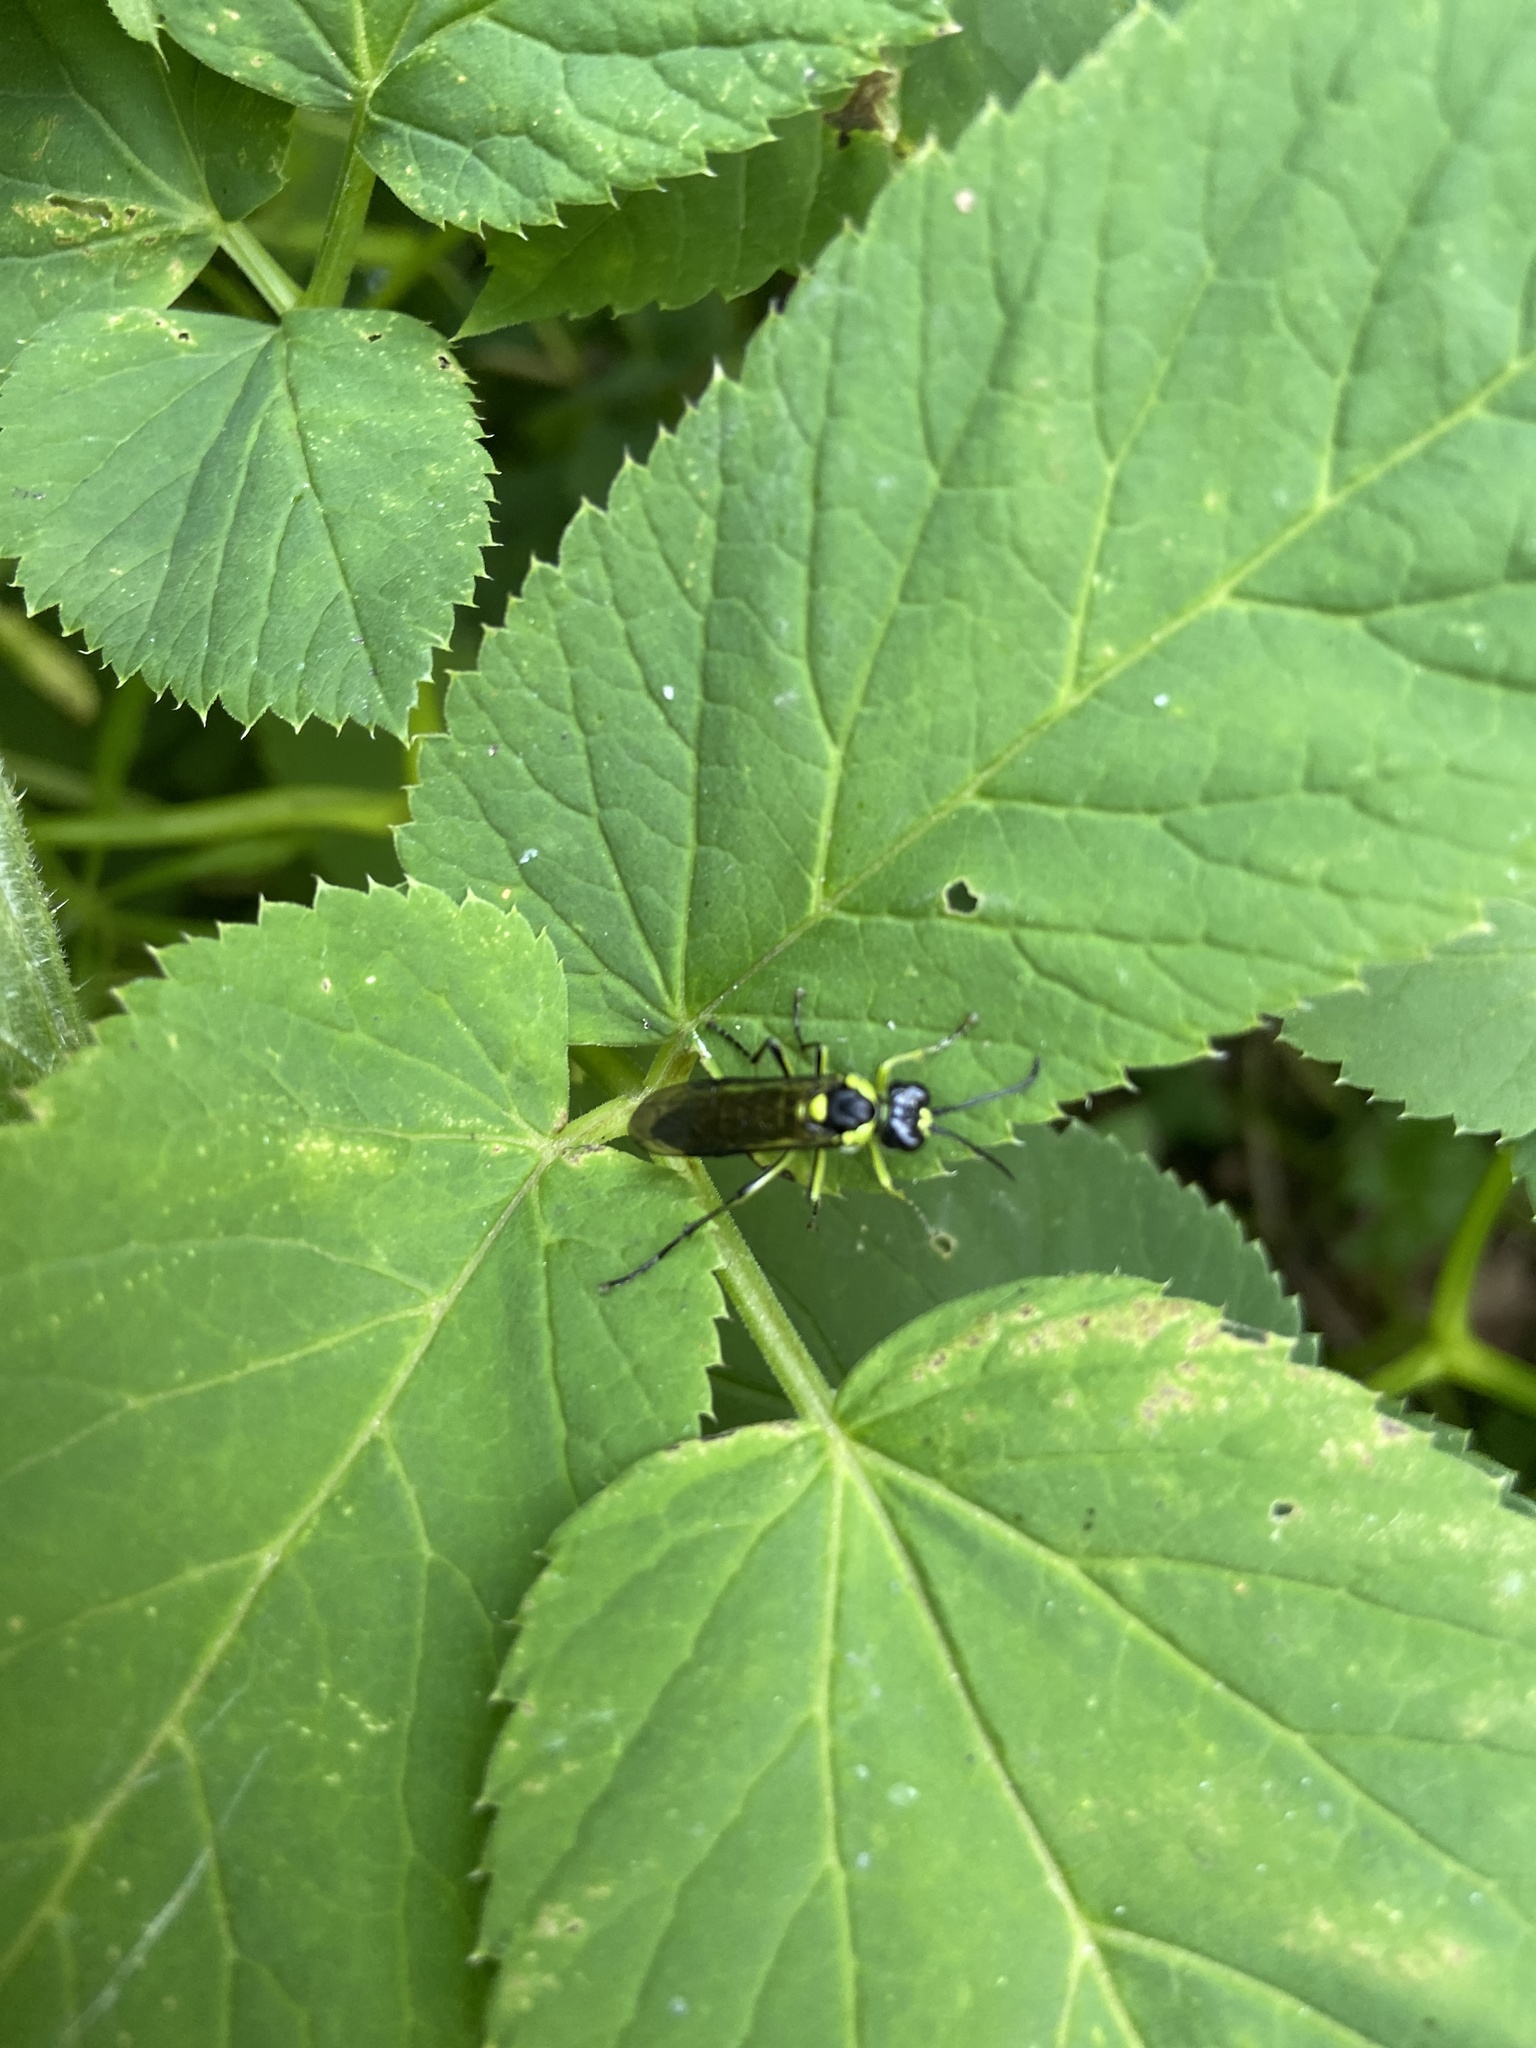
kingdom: Animalia
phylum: Arthropoda
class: Insecta
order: Hymenoptera
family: Tenthredinidae
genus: Tenthredo
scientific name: Tenthredo mesomela
